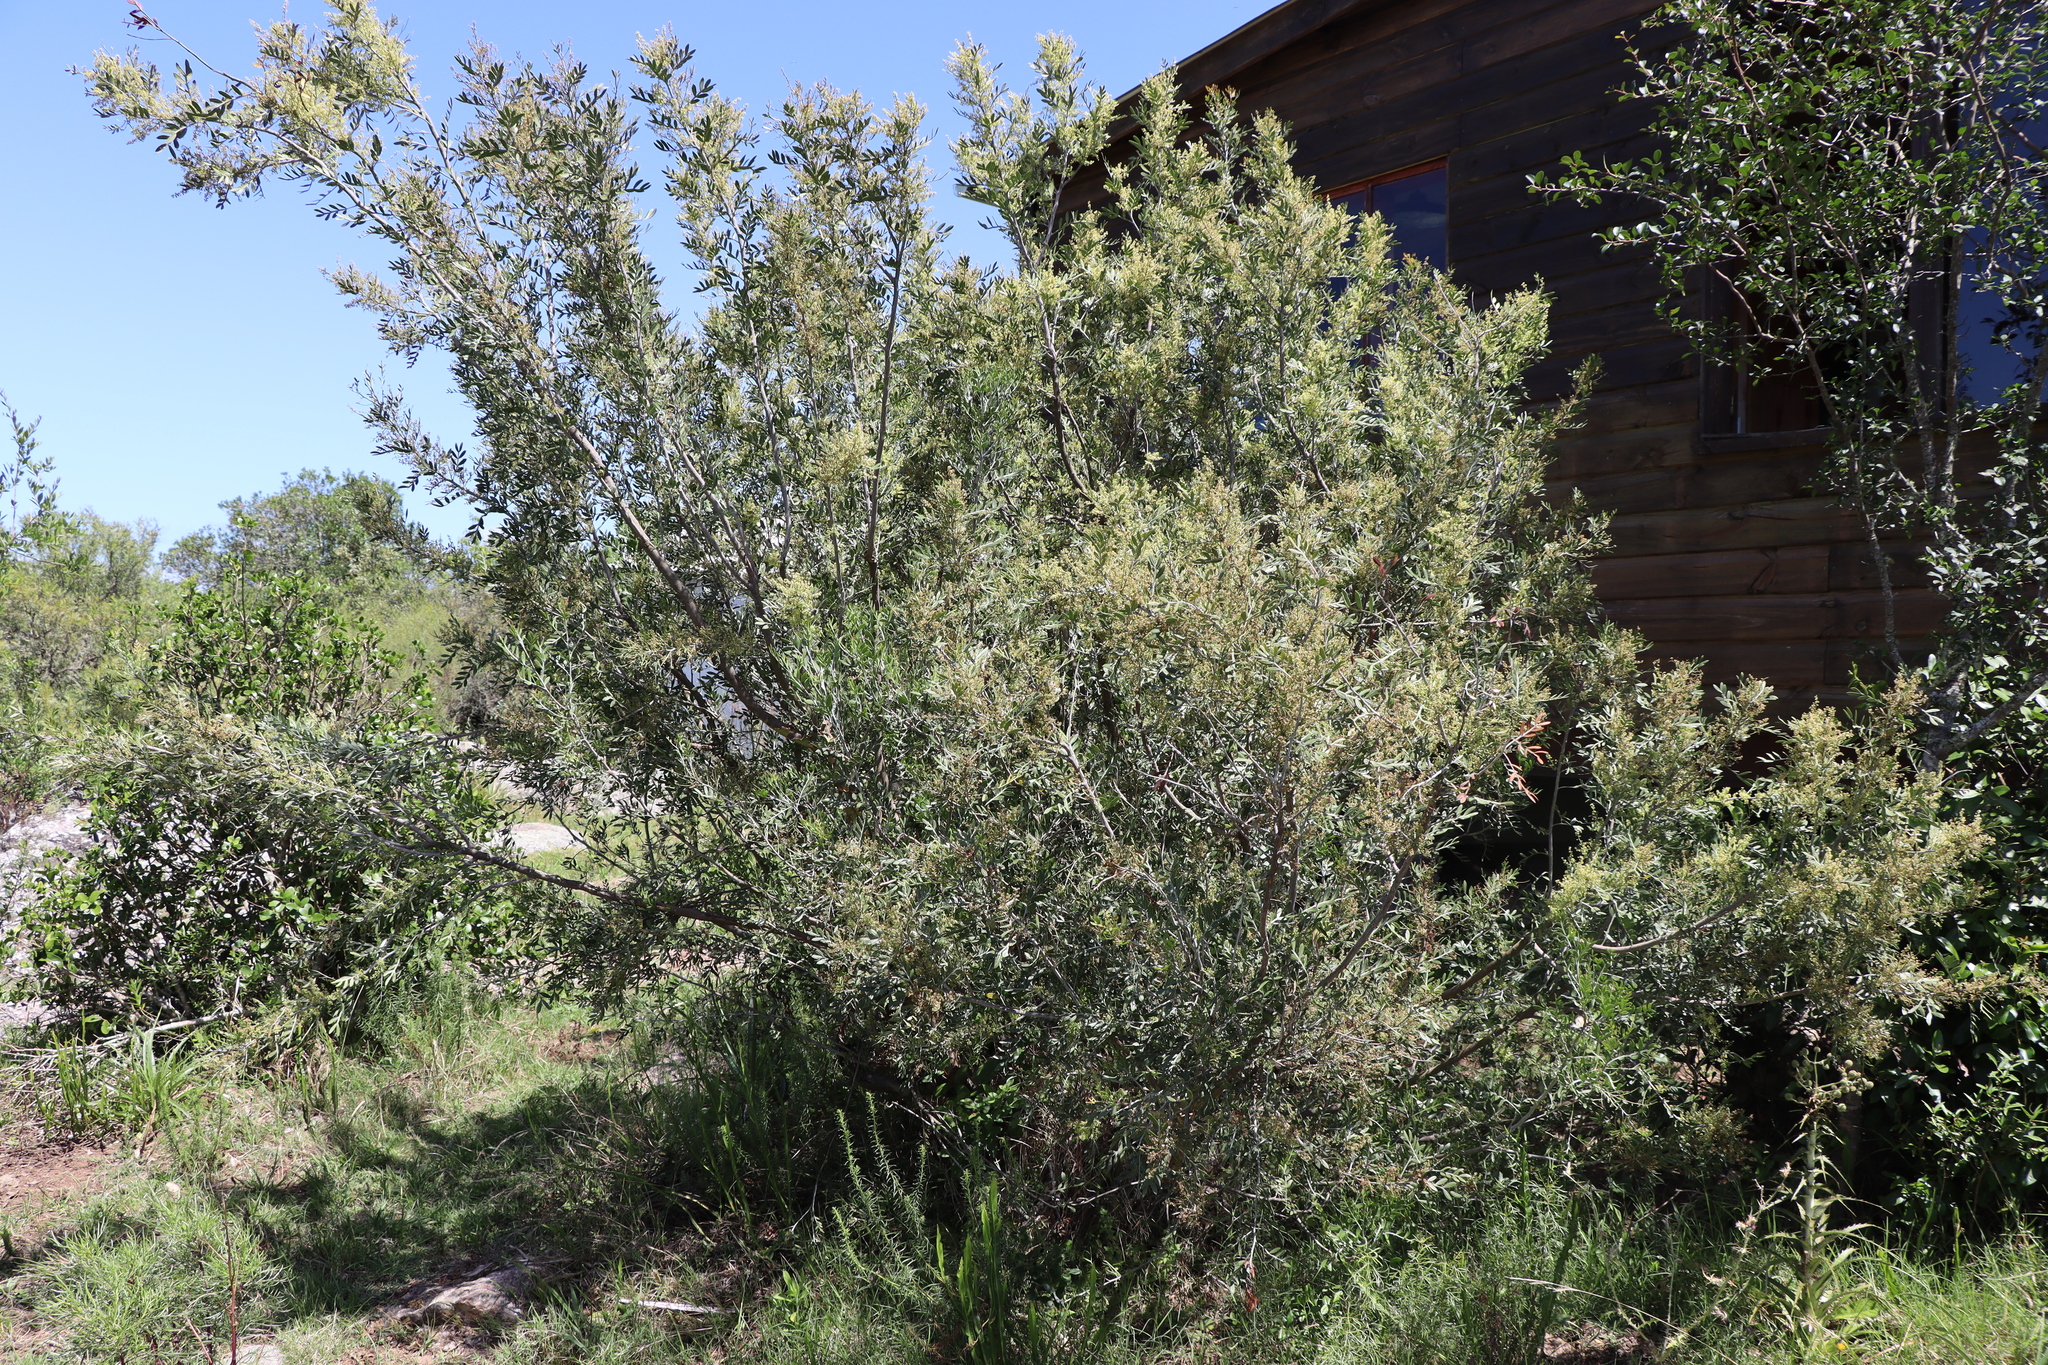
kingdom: Plantae
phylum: Tracheophyta
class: Magnoliopsida
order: Sapindales
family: Anacardiaceae
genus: Schinus
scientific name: Schinus lentiscifolia
